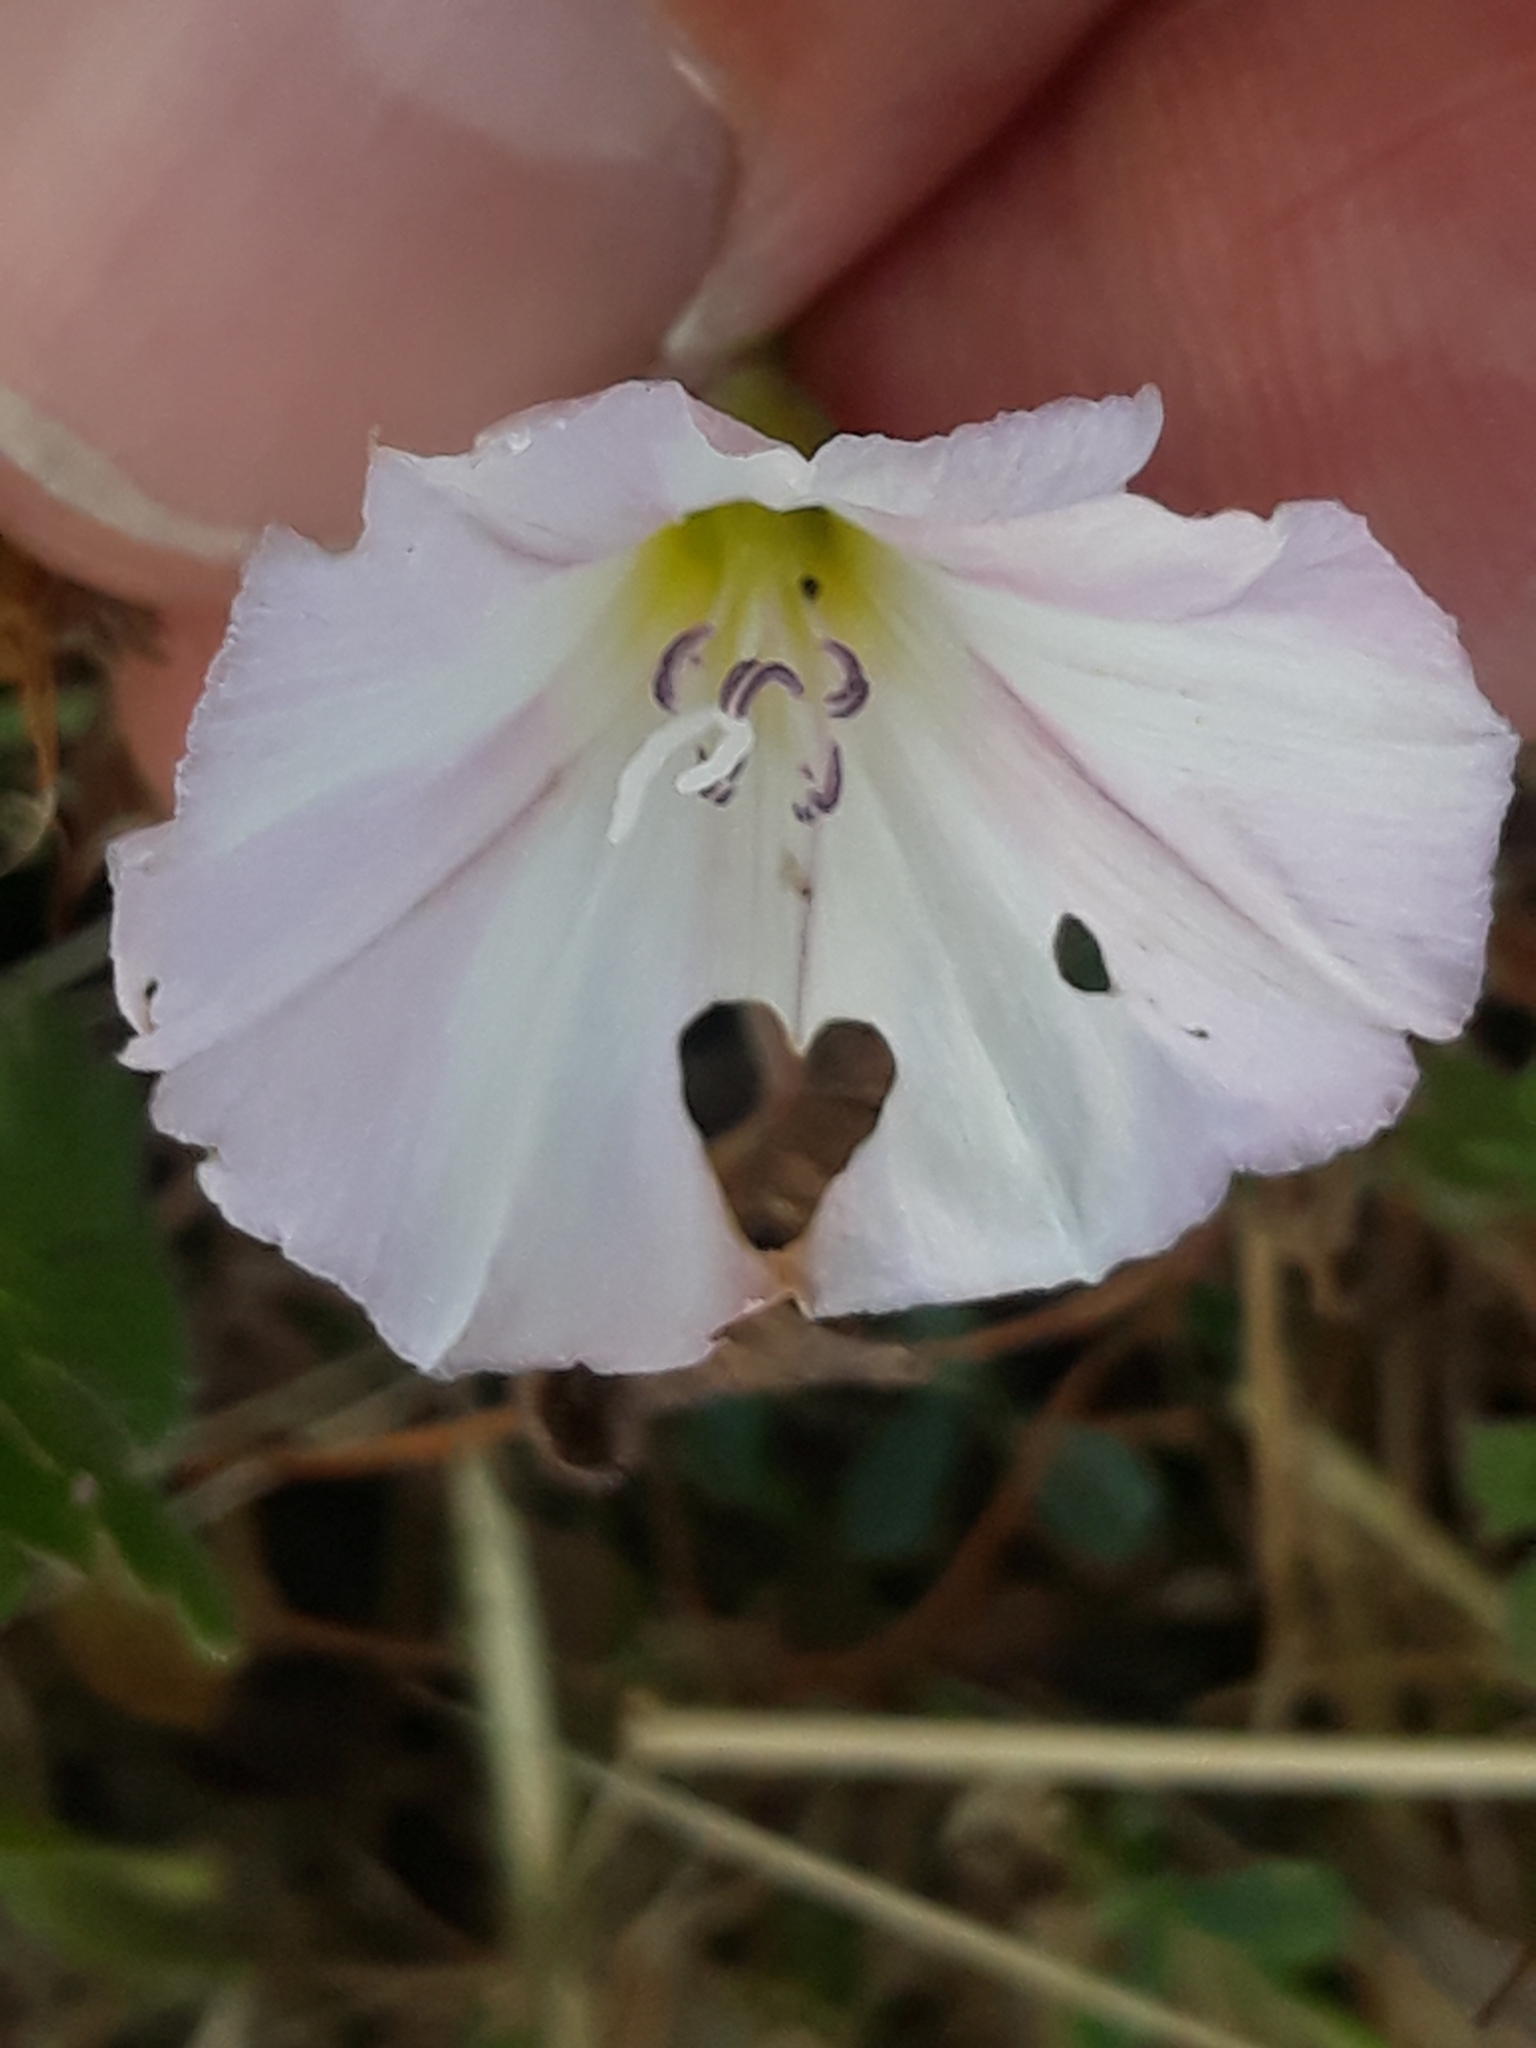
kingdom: Plantae
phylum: Tracheophyta
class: Magnoliopsida
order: Solanales
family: Convolvulaceae
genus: Convolvulus
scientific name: Convolvulus arvensis
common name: Field bindweed
